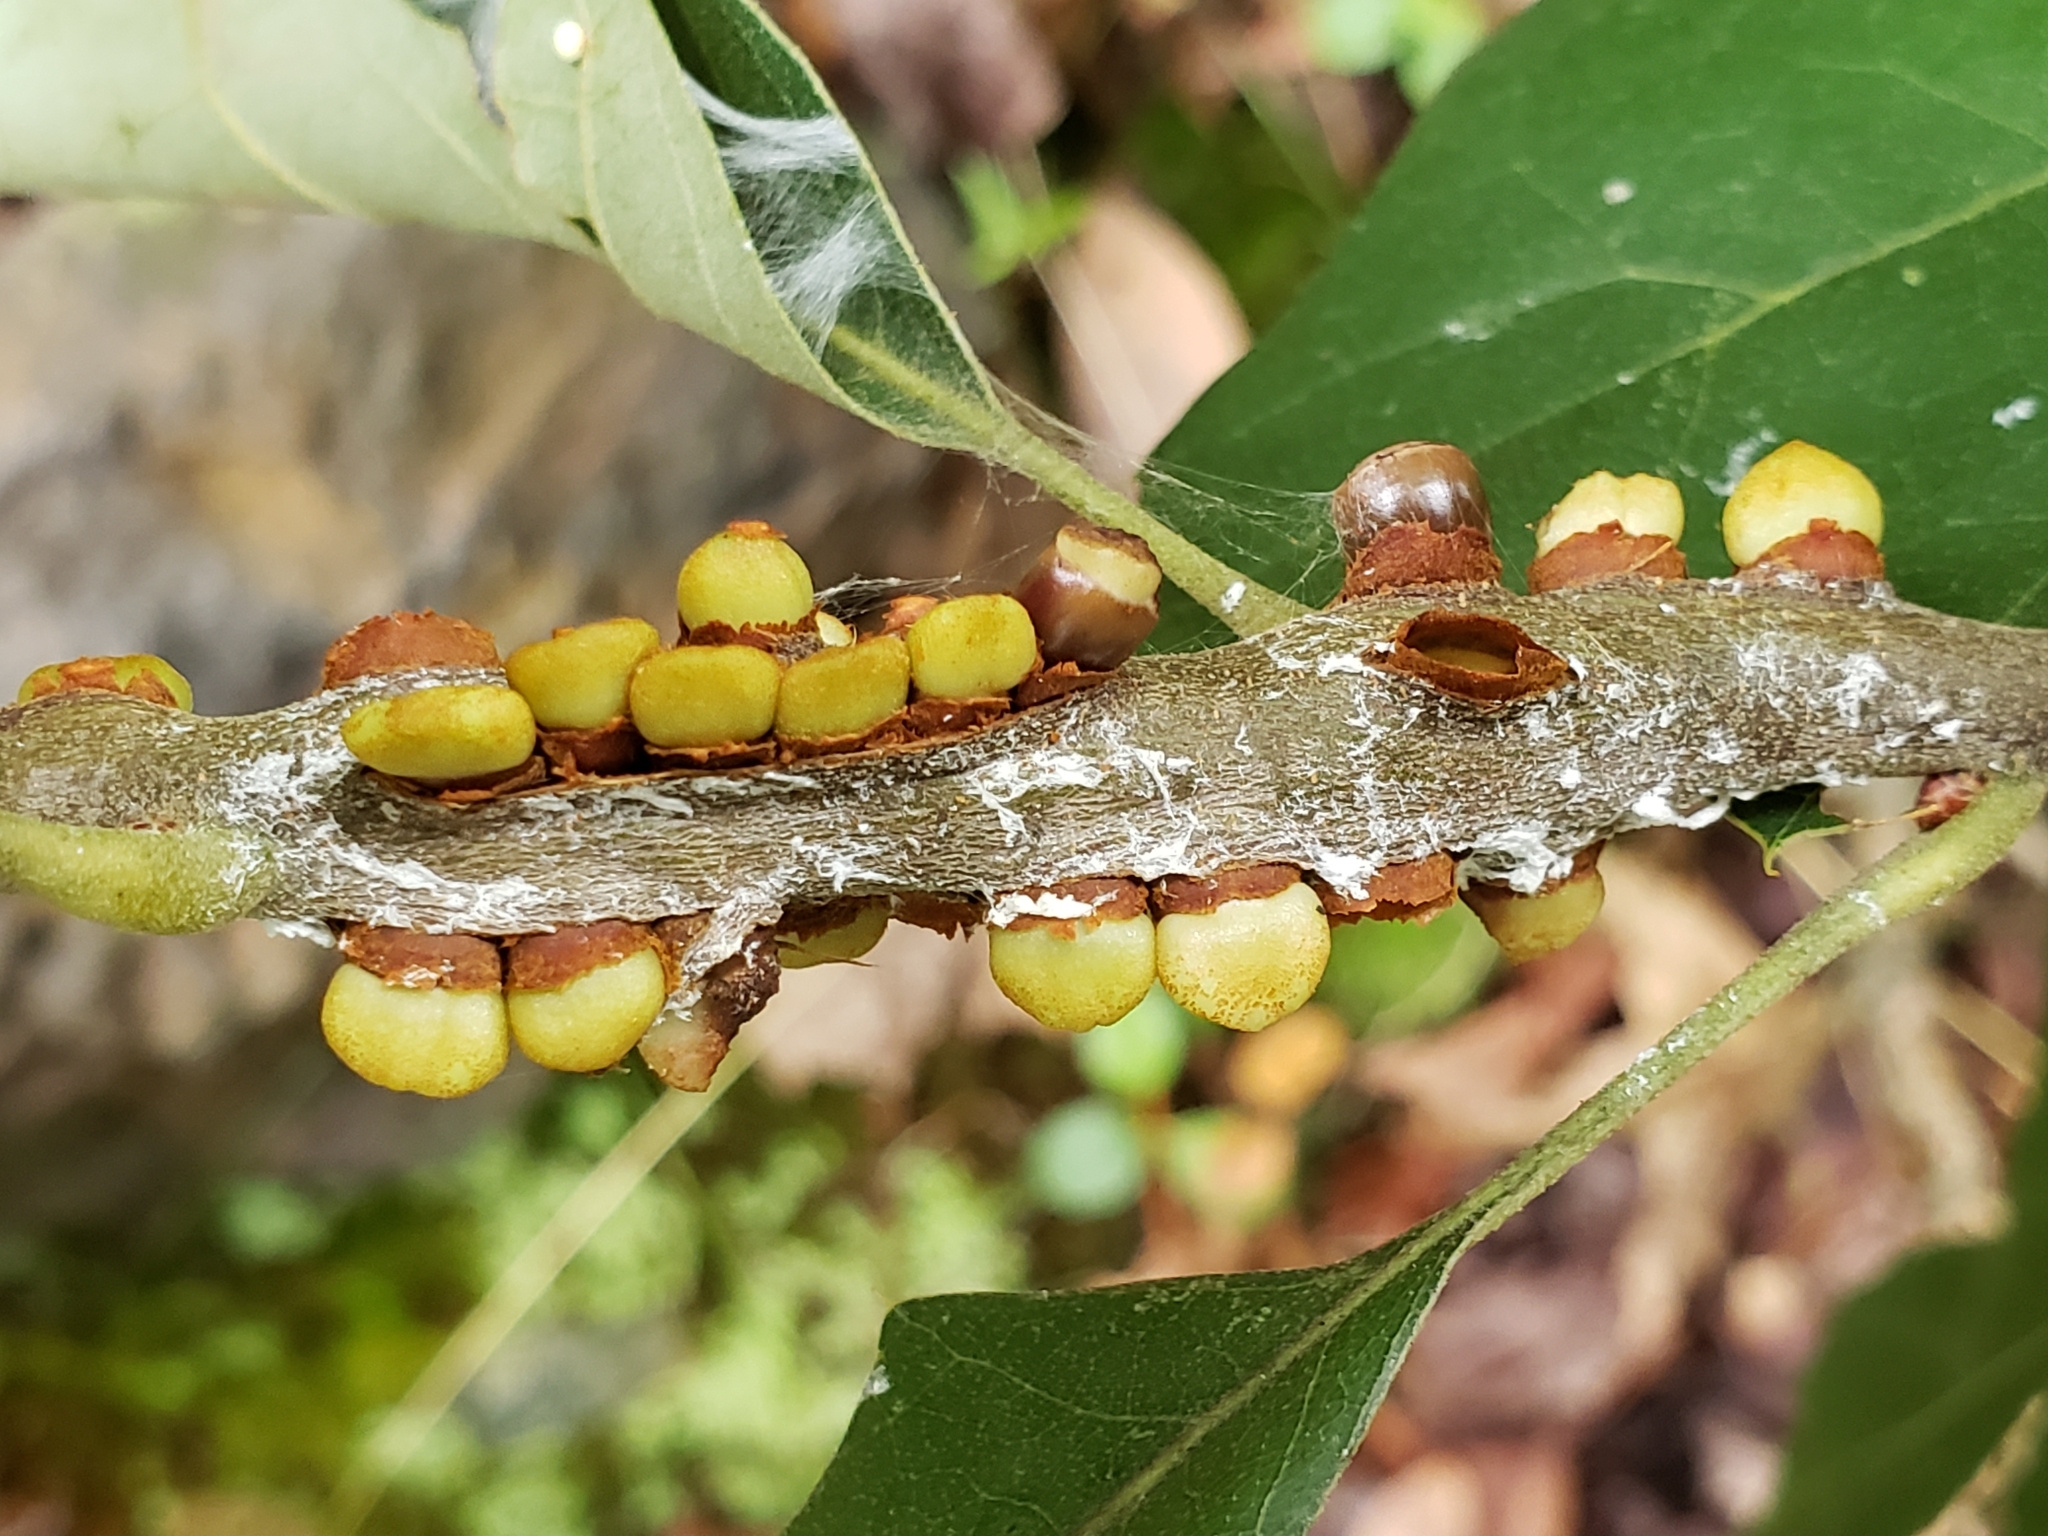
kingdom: Animalia
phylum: Arthropoda
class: Insecta
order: Hymenoptera
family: Cynipidae
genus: Callirhytis
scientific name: Callirhytis
